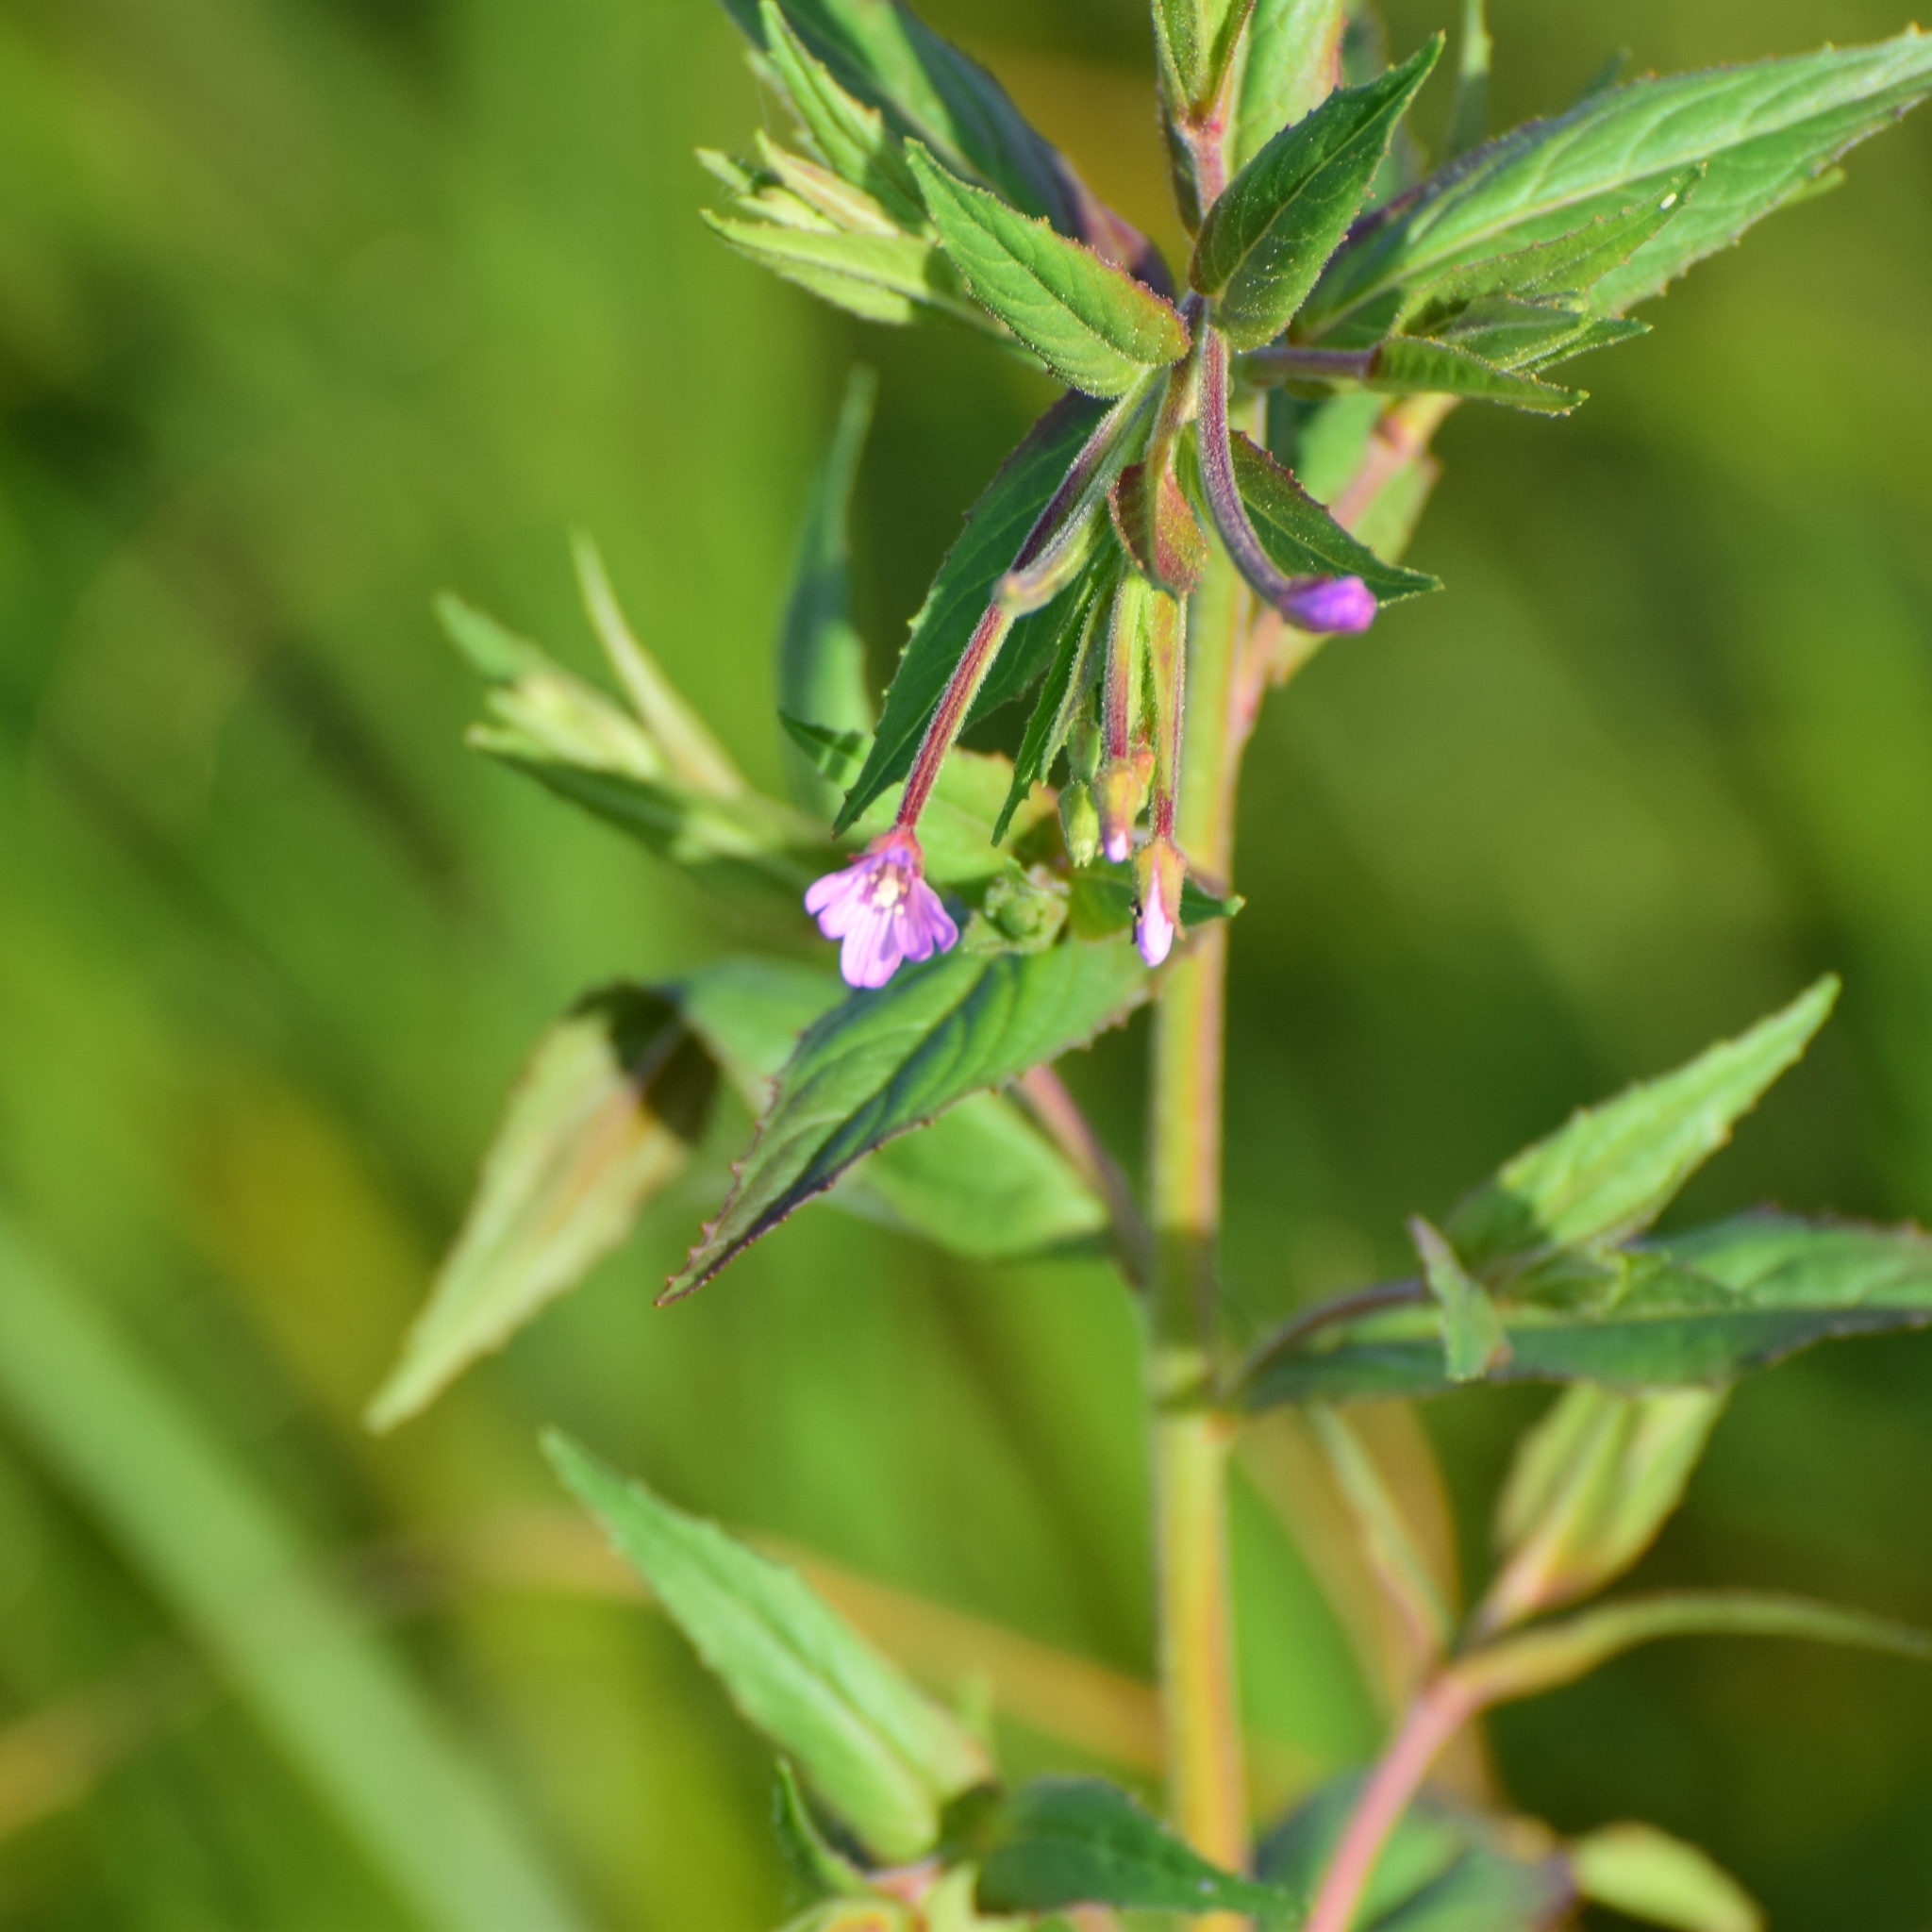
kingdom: Plantae
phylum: Tracheophyta
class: Magnoliopsida
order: Myrtales
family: Onagraceae
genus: Epilobium
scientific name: Epilobium ciliatum
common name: American willowherb
